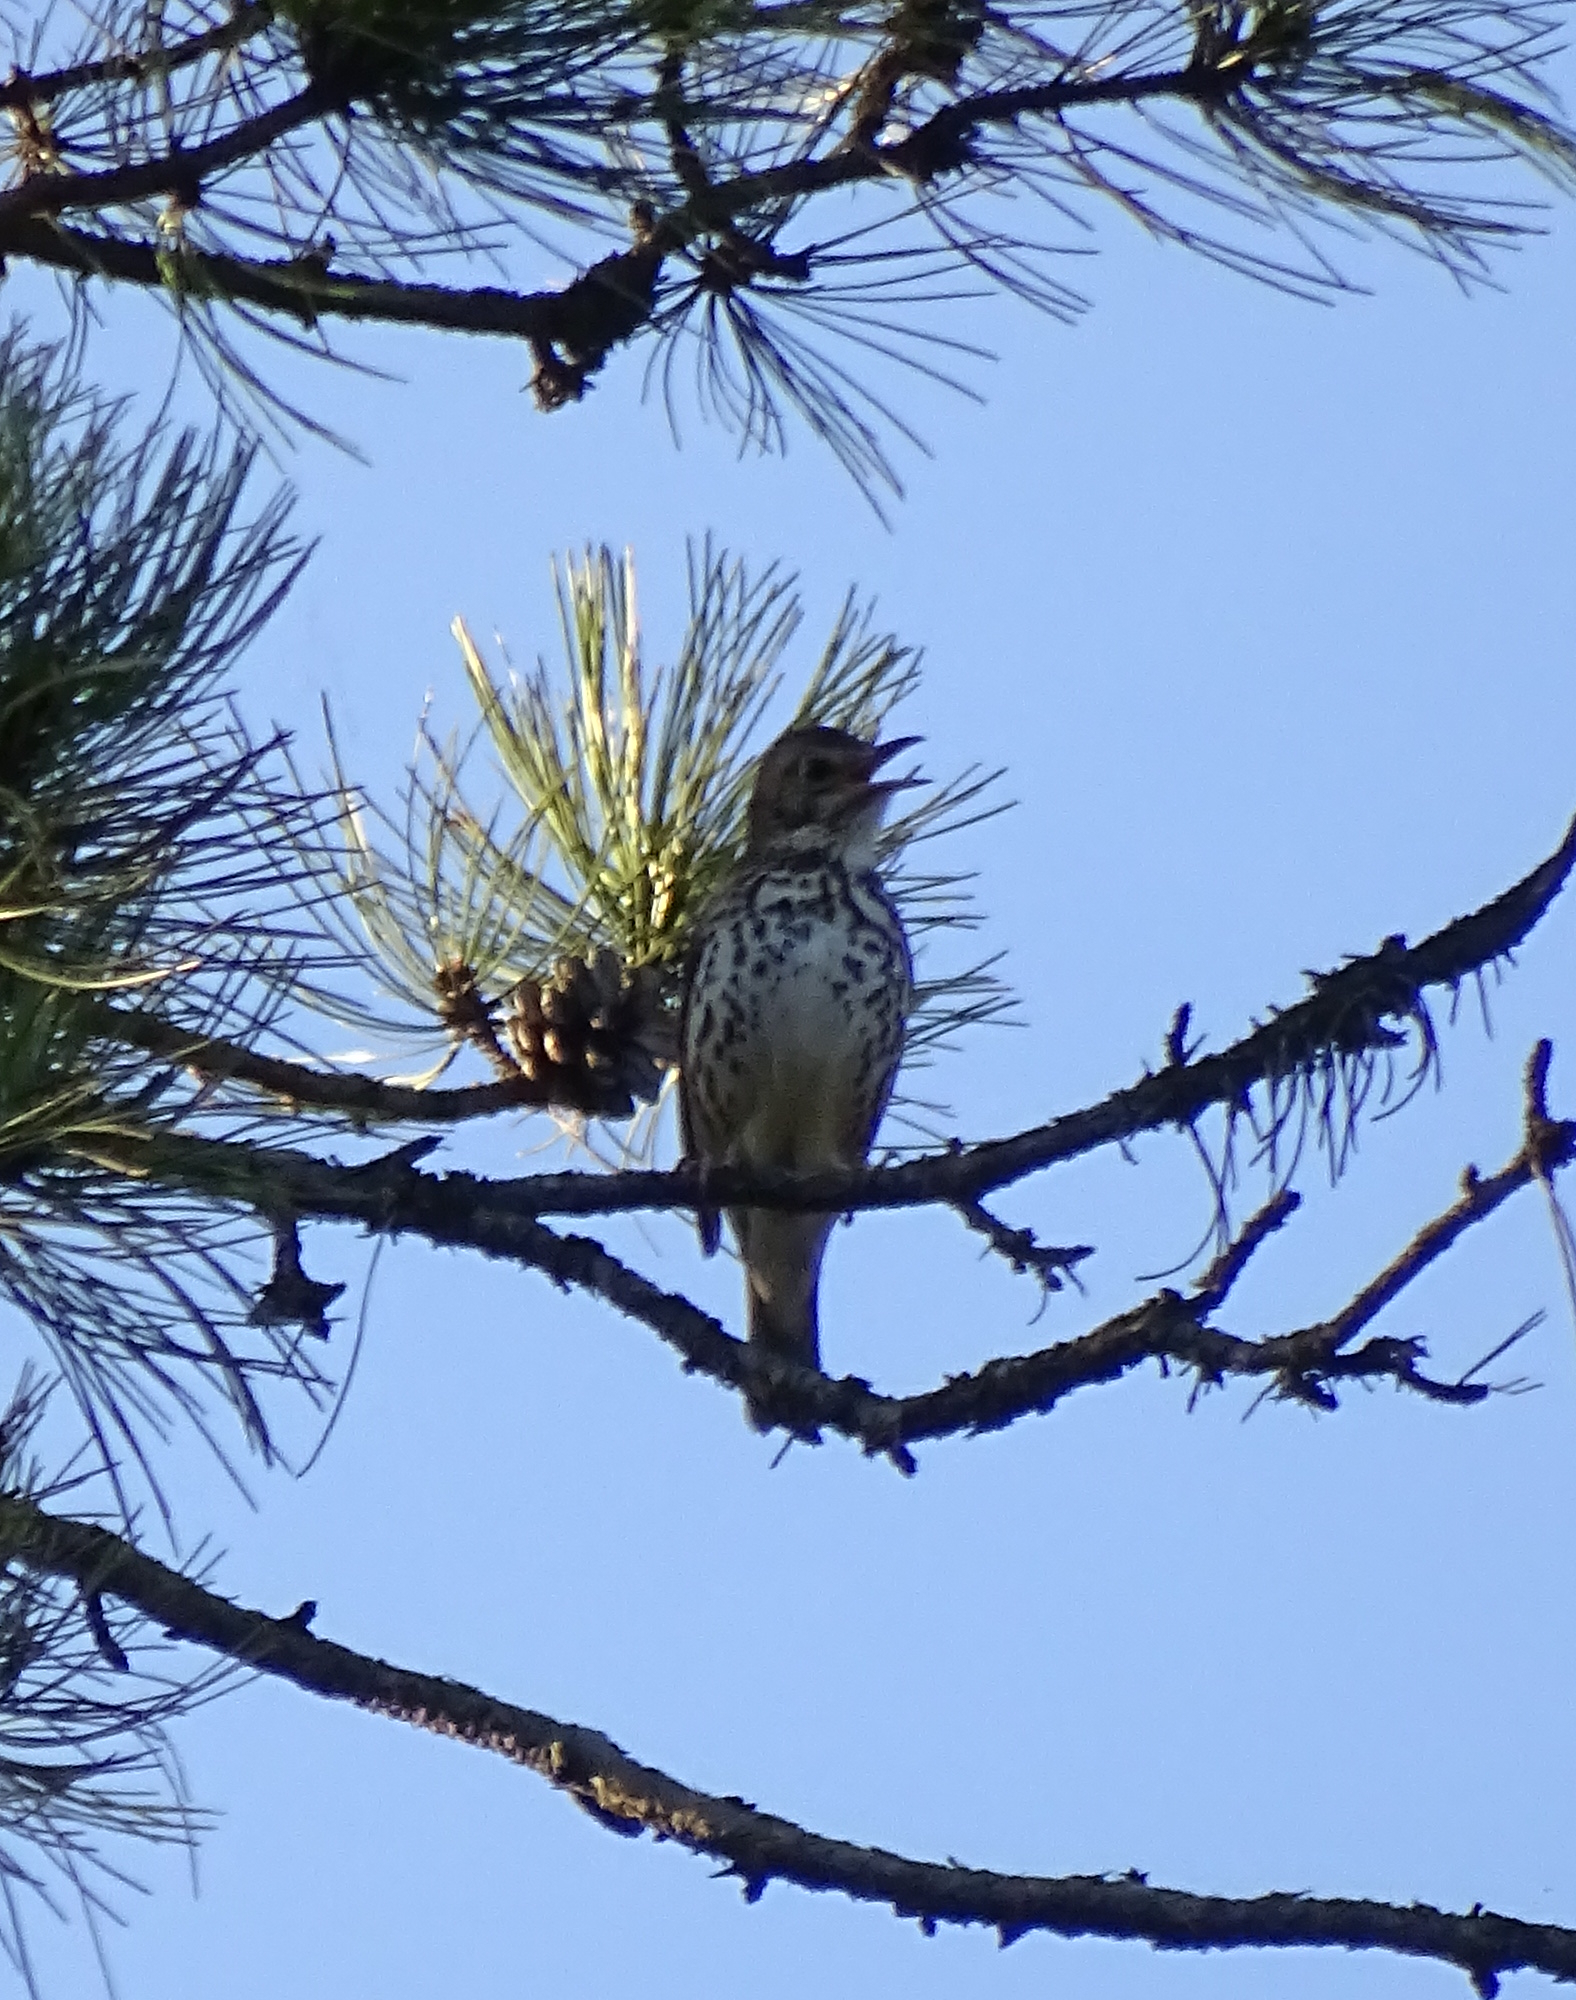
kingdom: Animalia
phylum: Chordata
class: Aves
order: Passeriformes
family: Turdidae
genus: Turdus
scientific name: Turdus philomelos
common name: Song thrush
